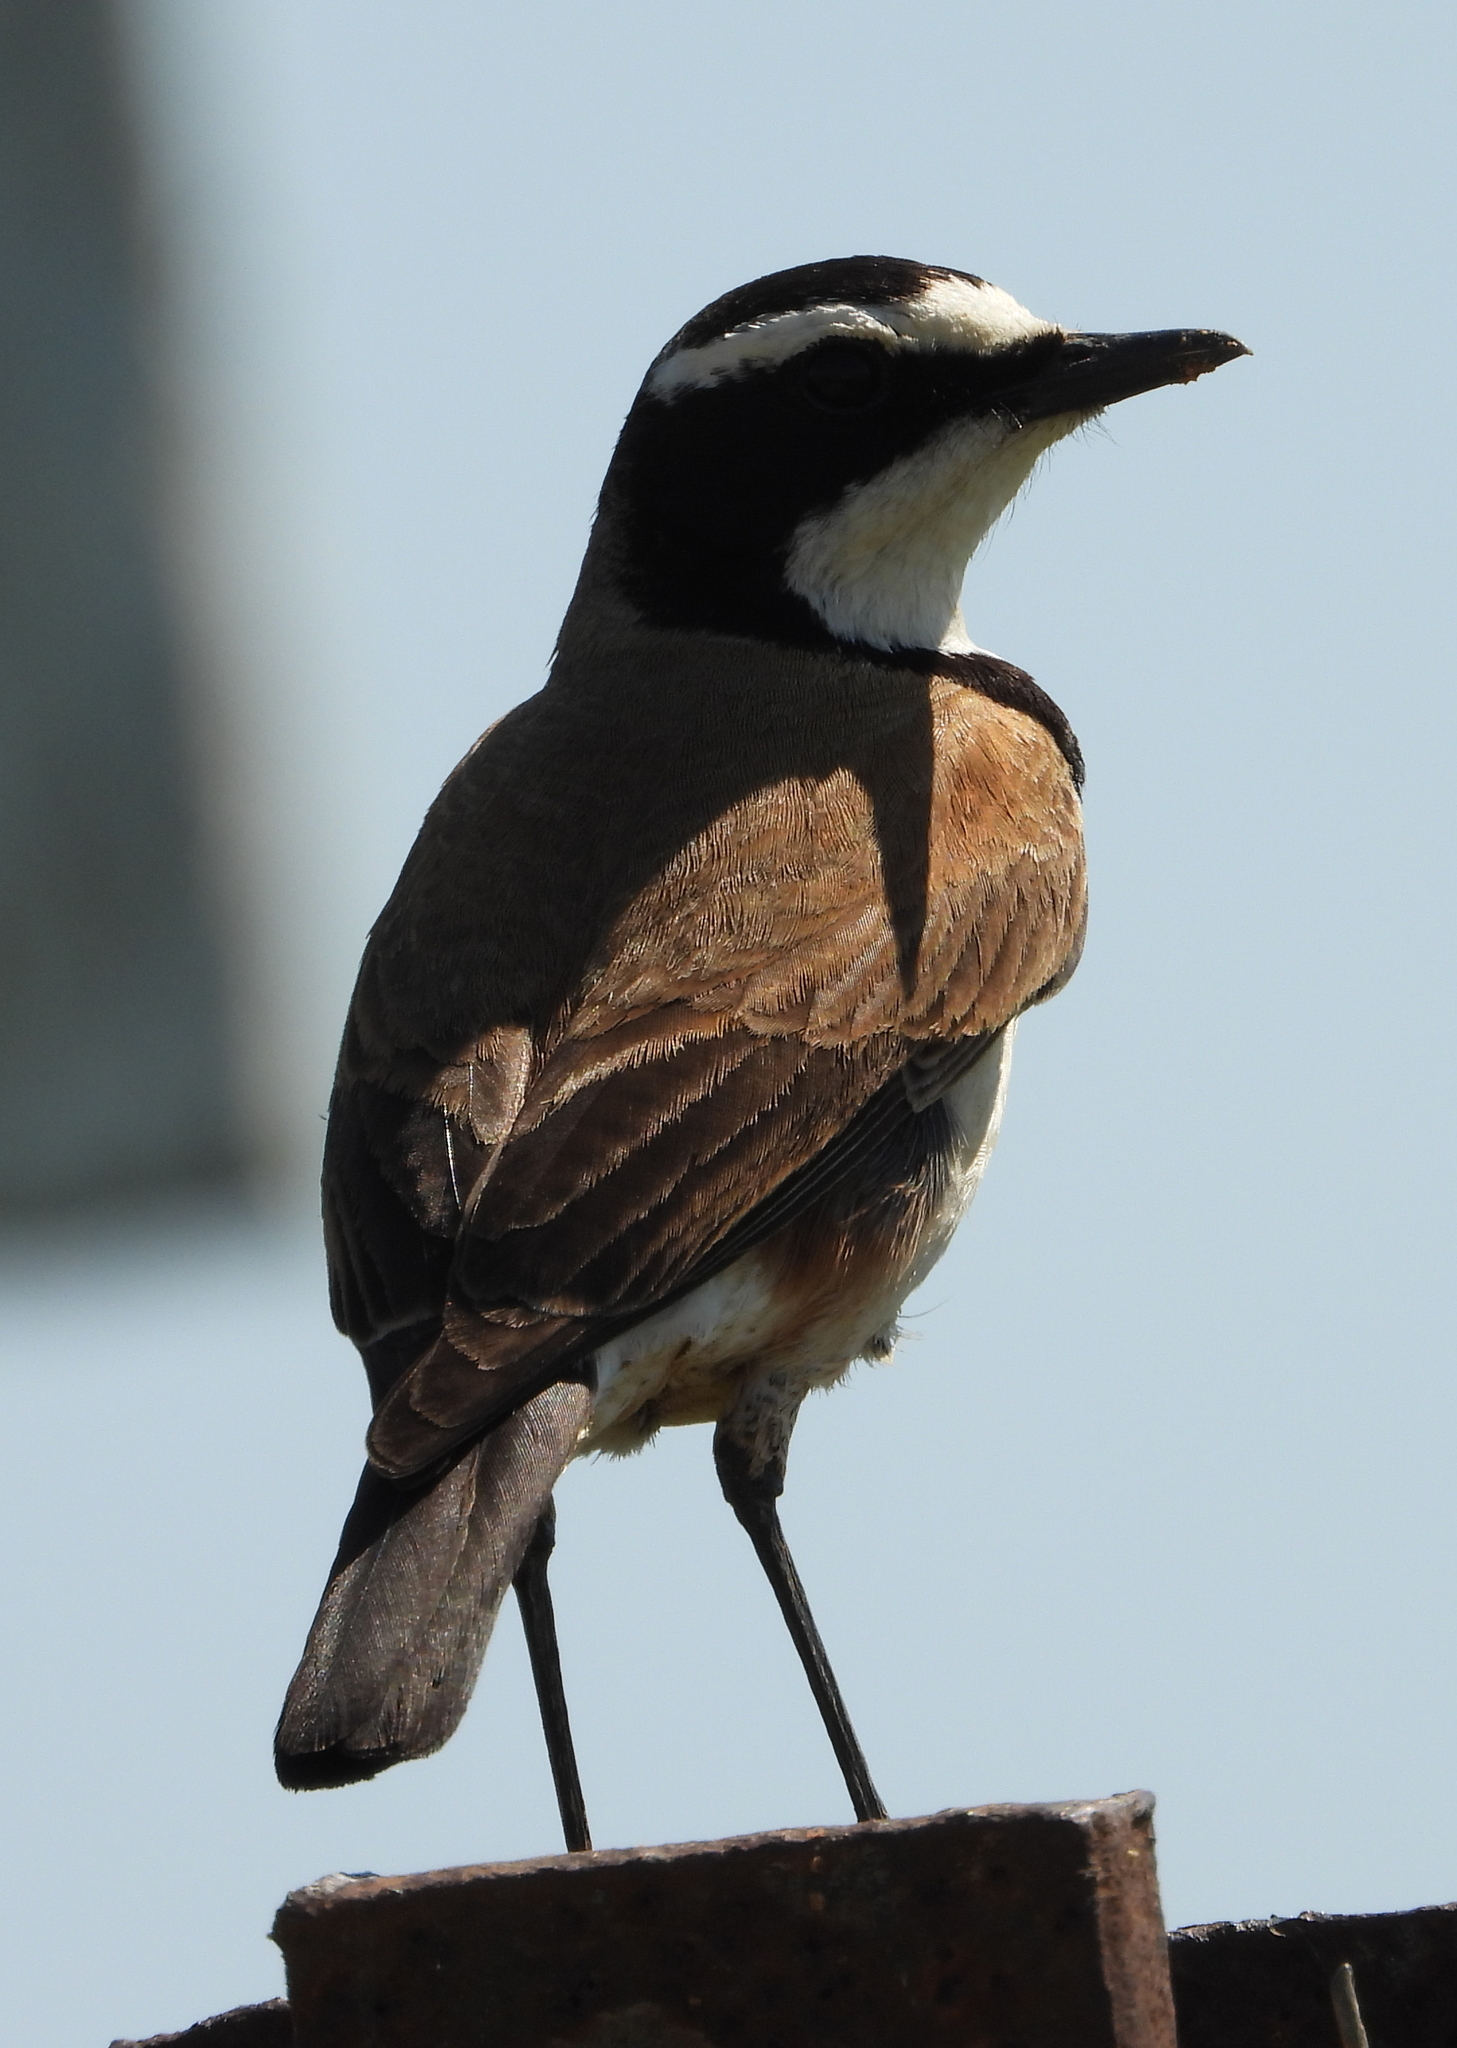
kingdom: Animalia
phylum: Chordata
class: Aves
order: Passeriformes
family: Muscicapidae
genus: Oenanthe
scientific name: Oenanthe pileata
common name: Capped wheatear
